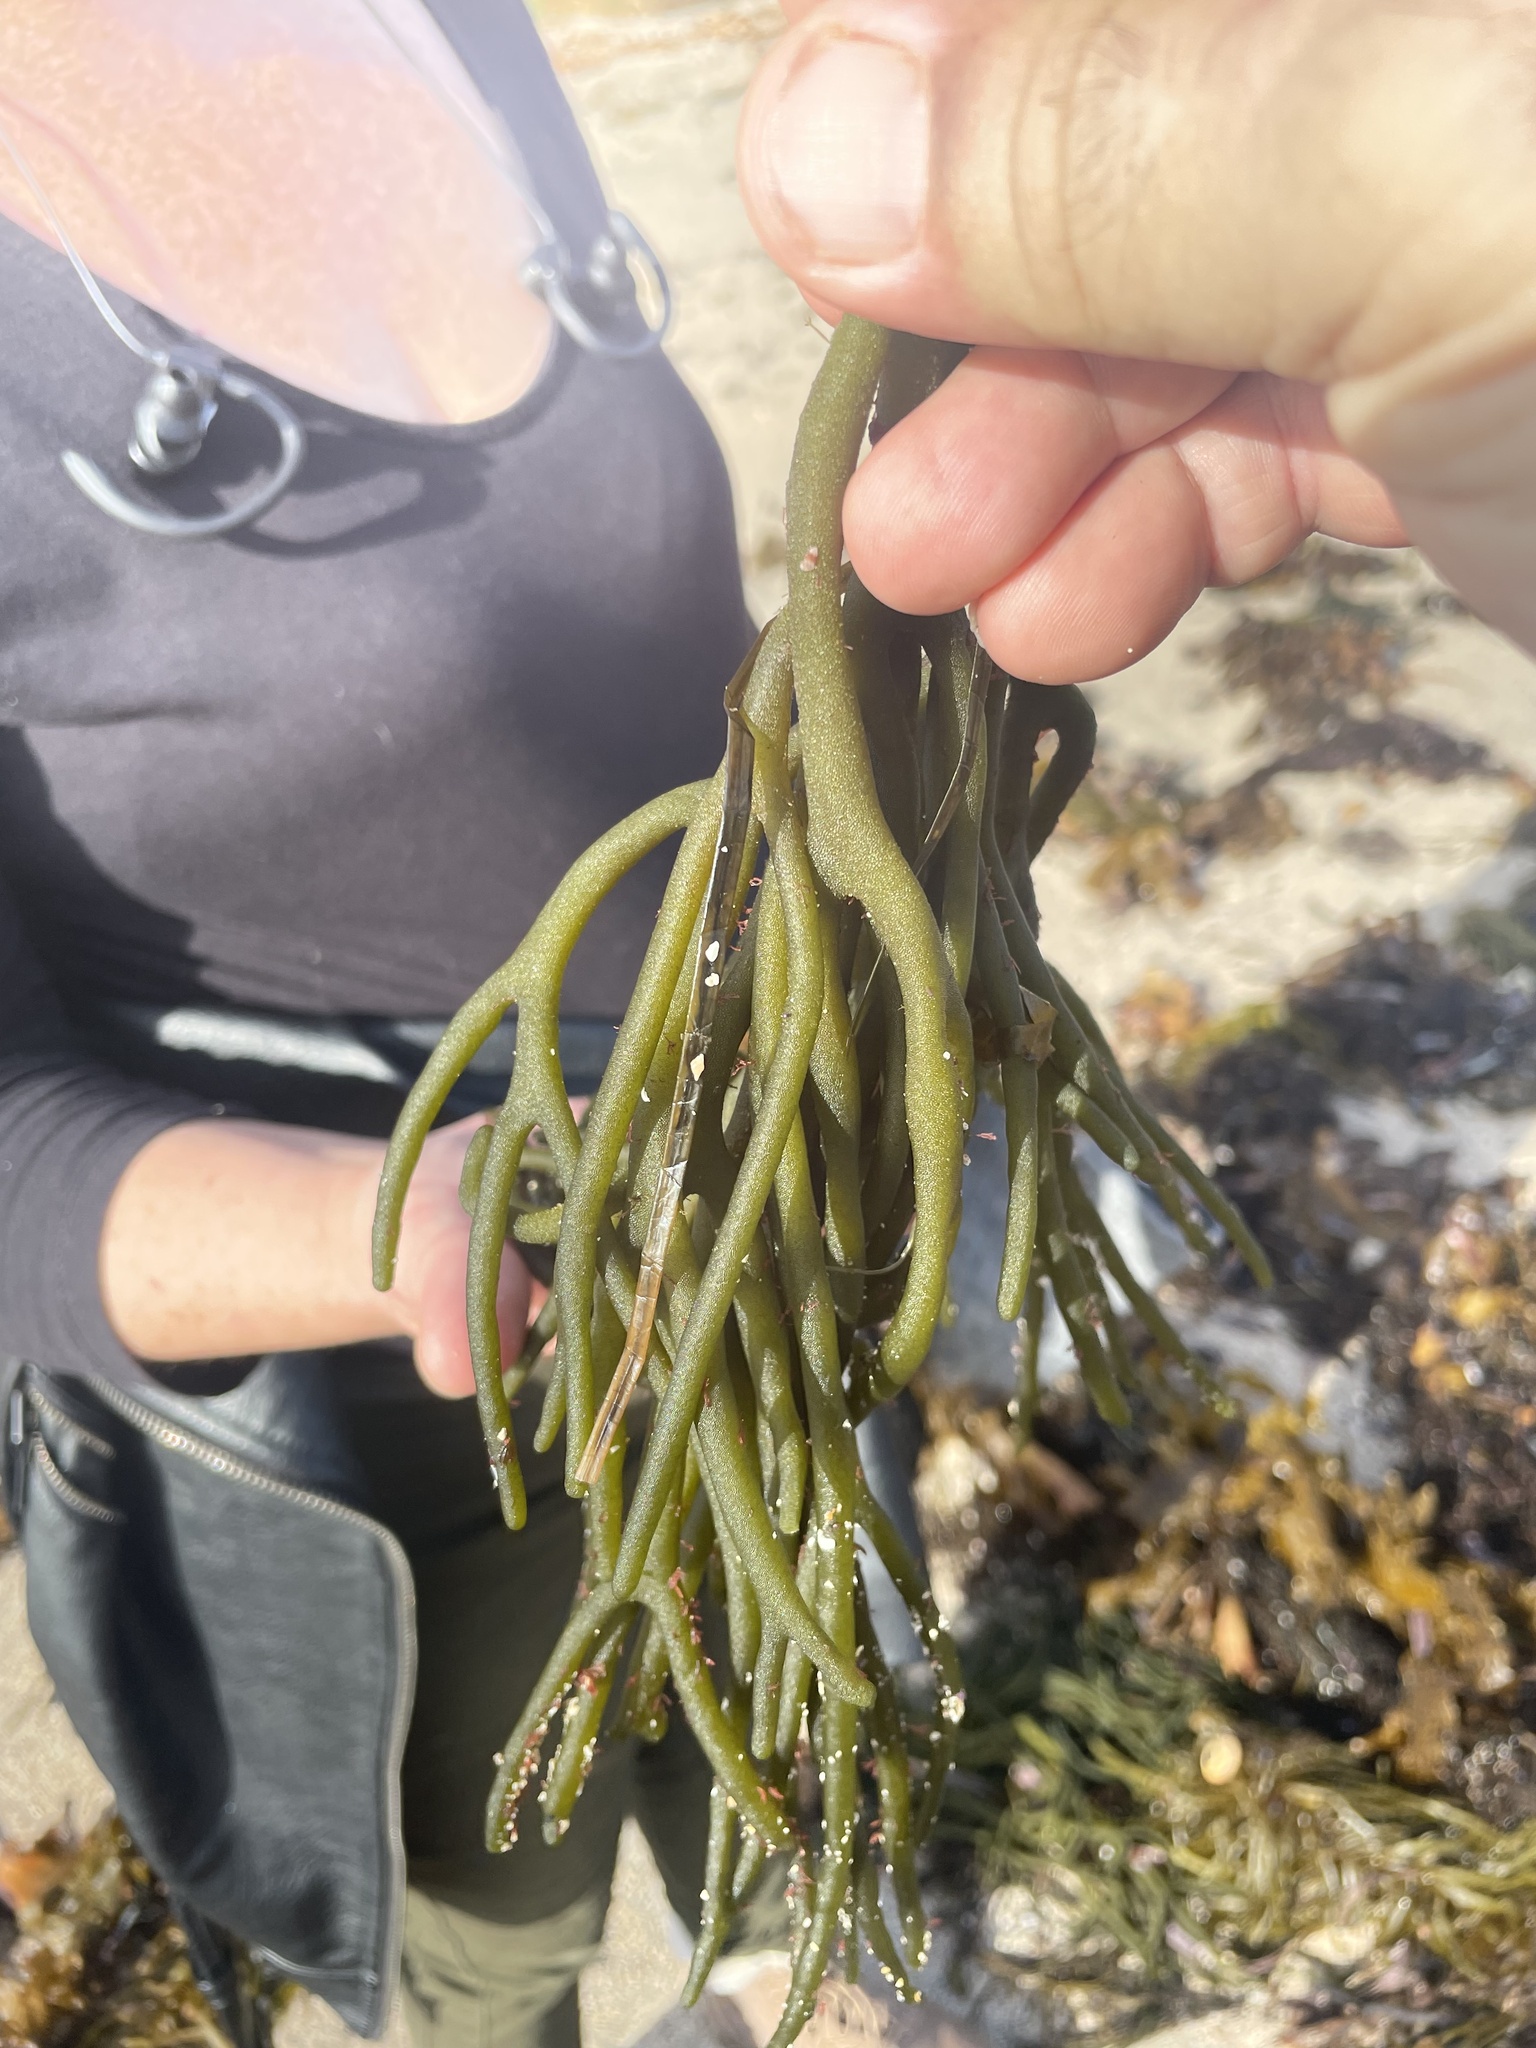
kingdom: Plantae
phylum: Chlorophyta
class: Ulvophyceae
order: Bryopsidales
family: Codiaceae
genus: Codium
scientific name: Codium fragile
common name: Dead man's fingers
